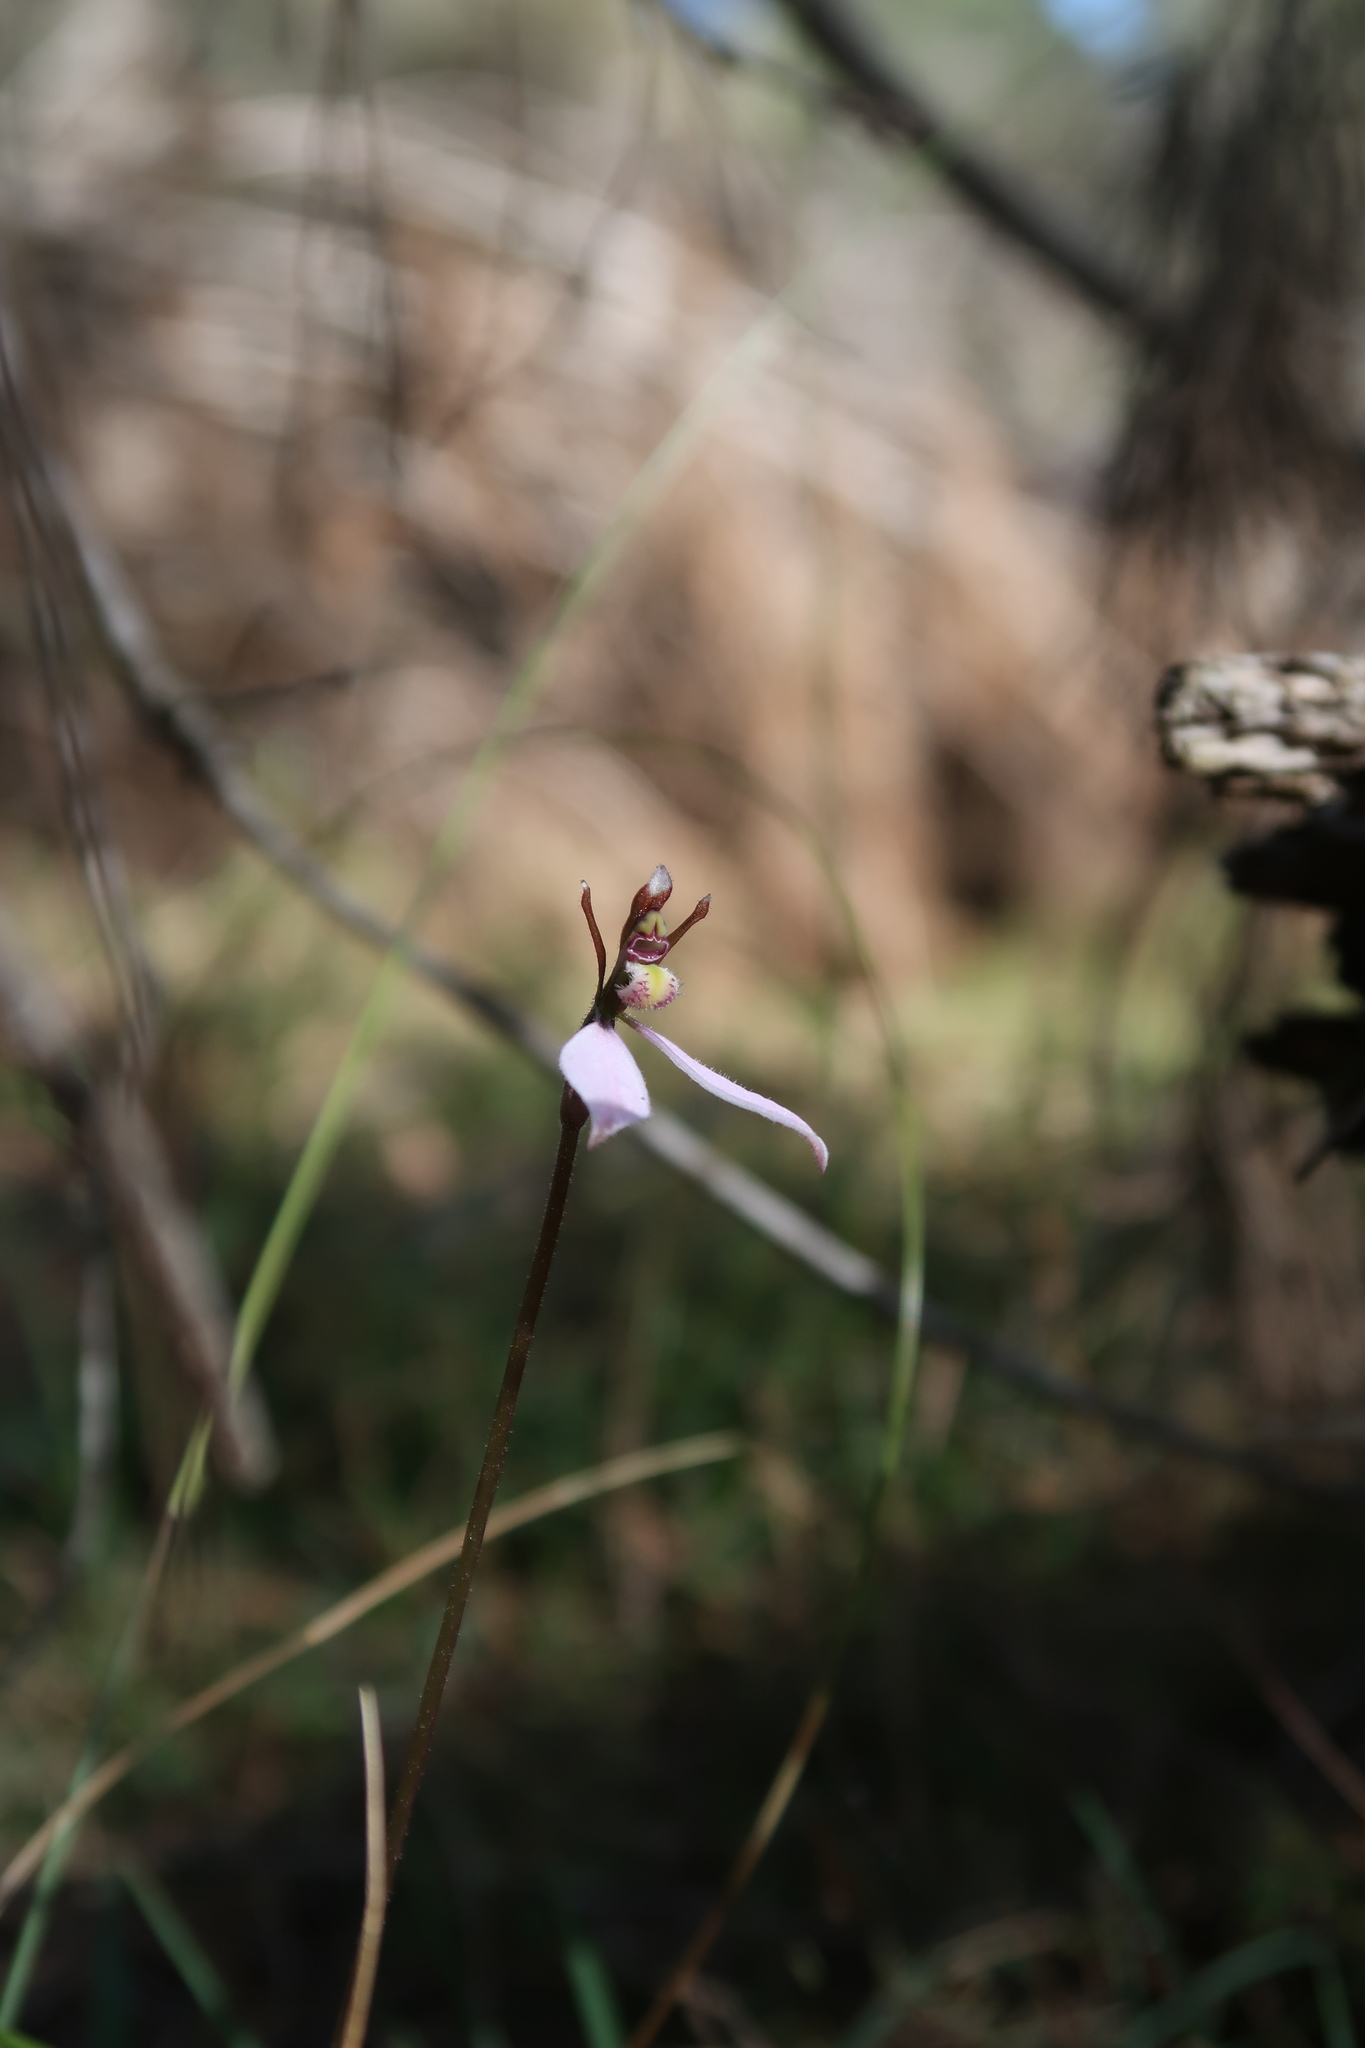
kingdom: Plantae
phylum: Tracheophyta
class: Liliopsida
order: Asparagales
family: Orchidaceae
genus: Eriochilus
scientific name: Eriochilus cucullatus
